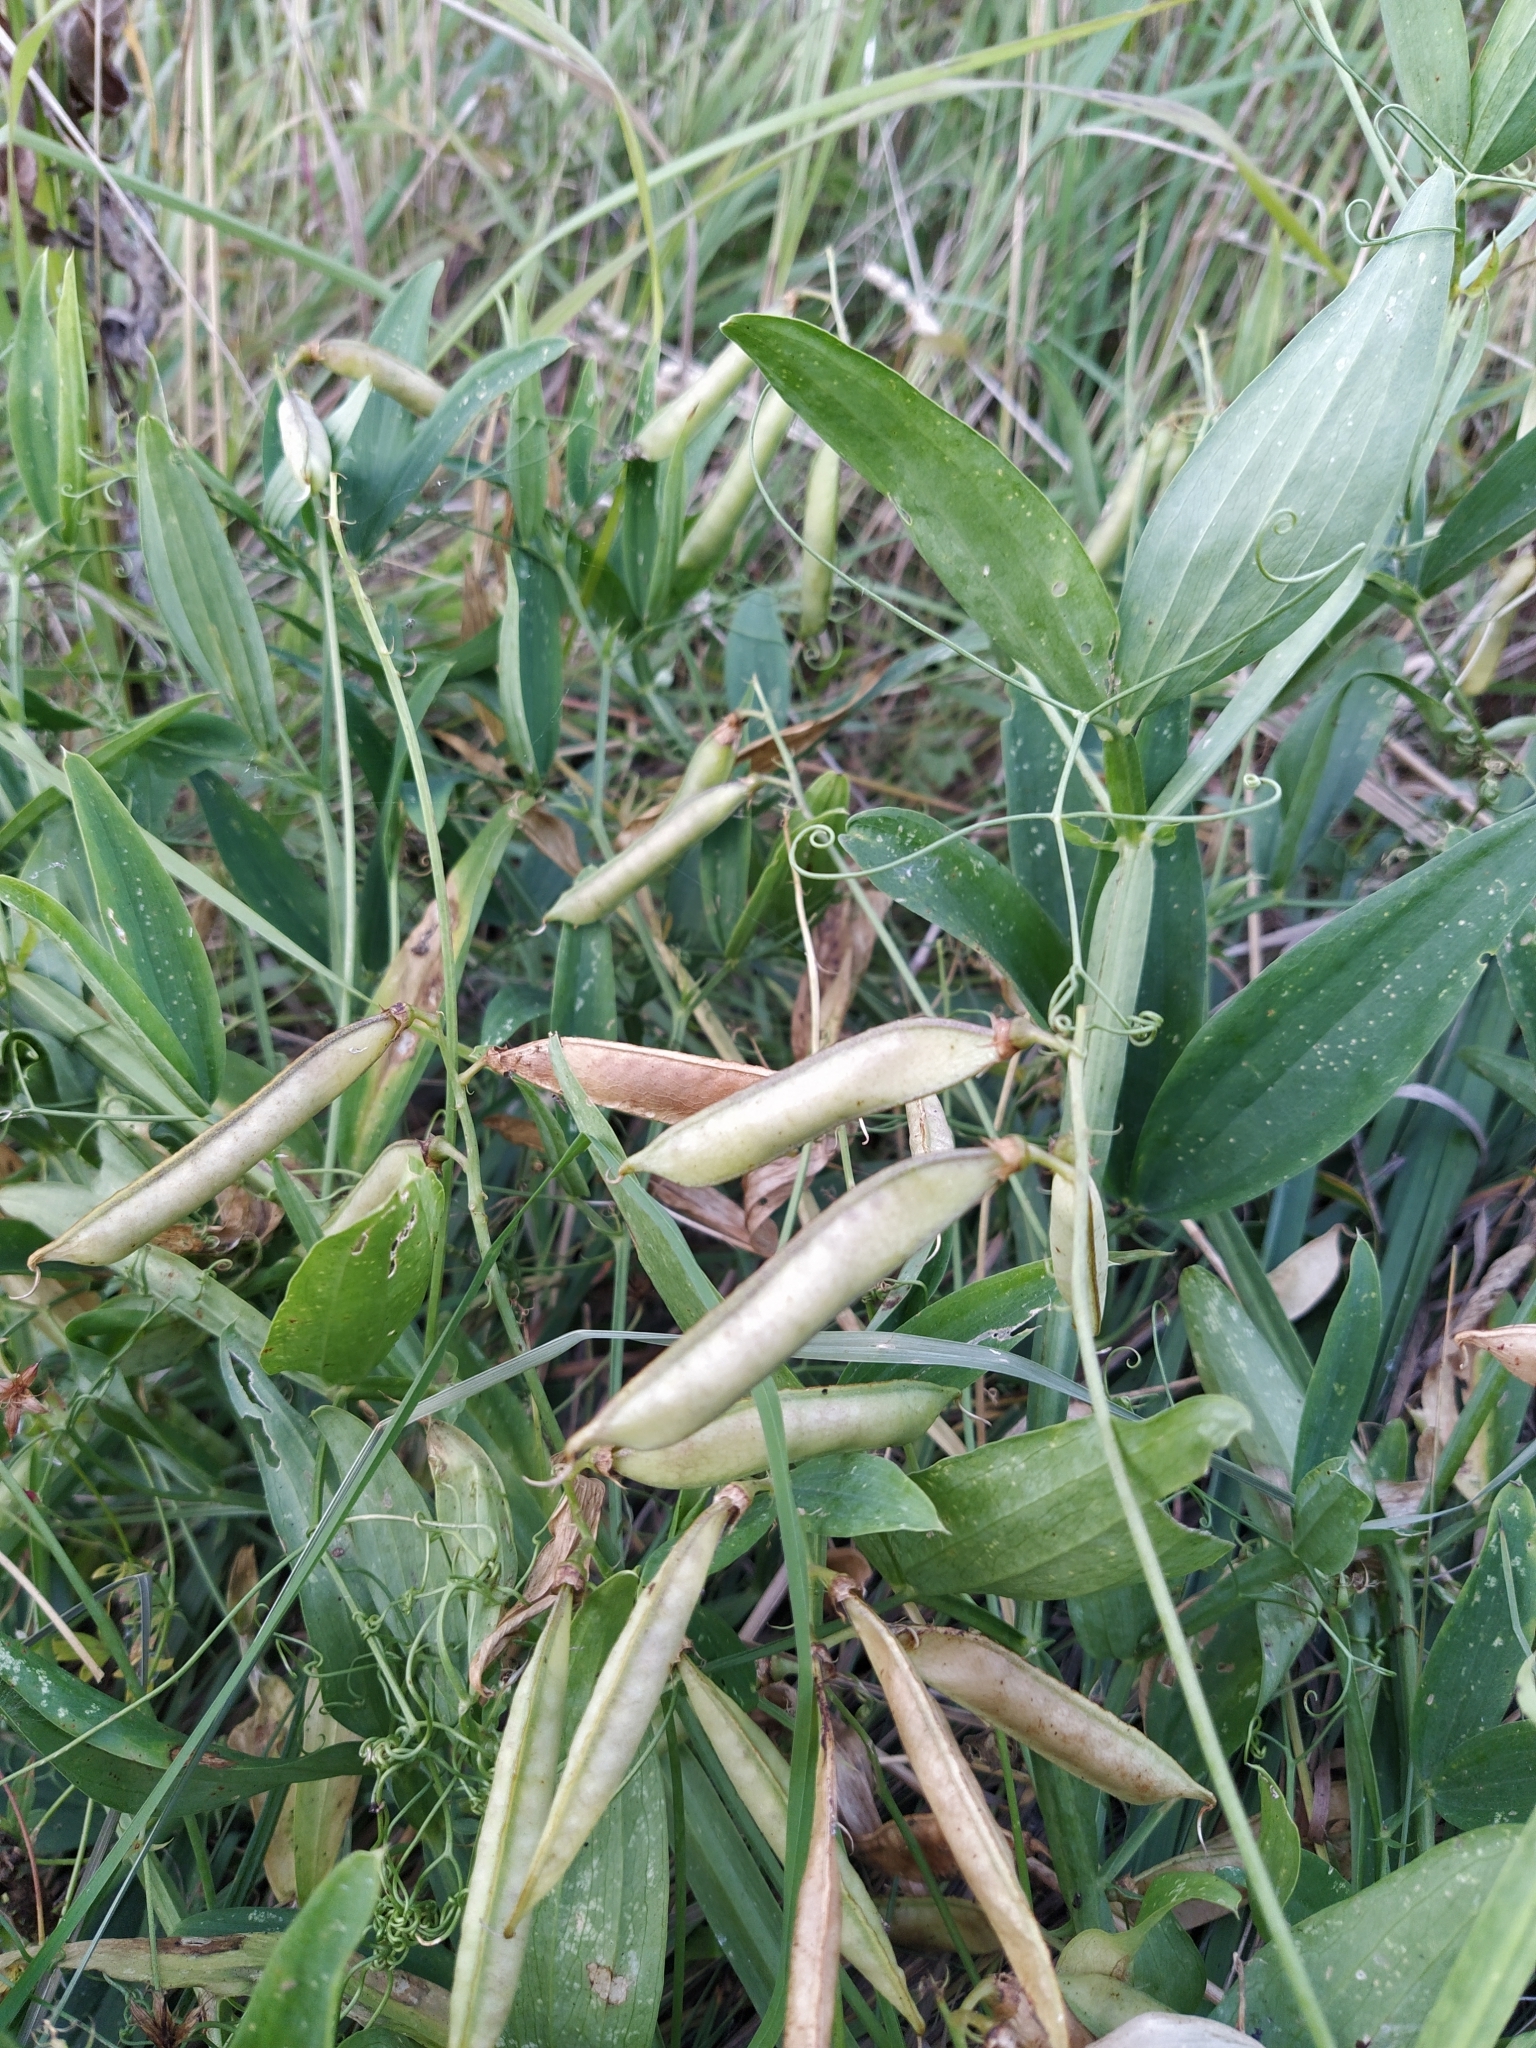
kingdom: Plantae
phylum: Tracheophyta
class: Magnoliopsida
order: Fabales
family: Fabaceae
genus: Lathyrus
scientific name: Lathyrus sylvestris
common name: Flat pea
